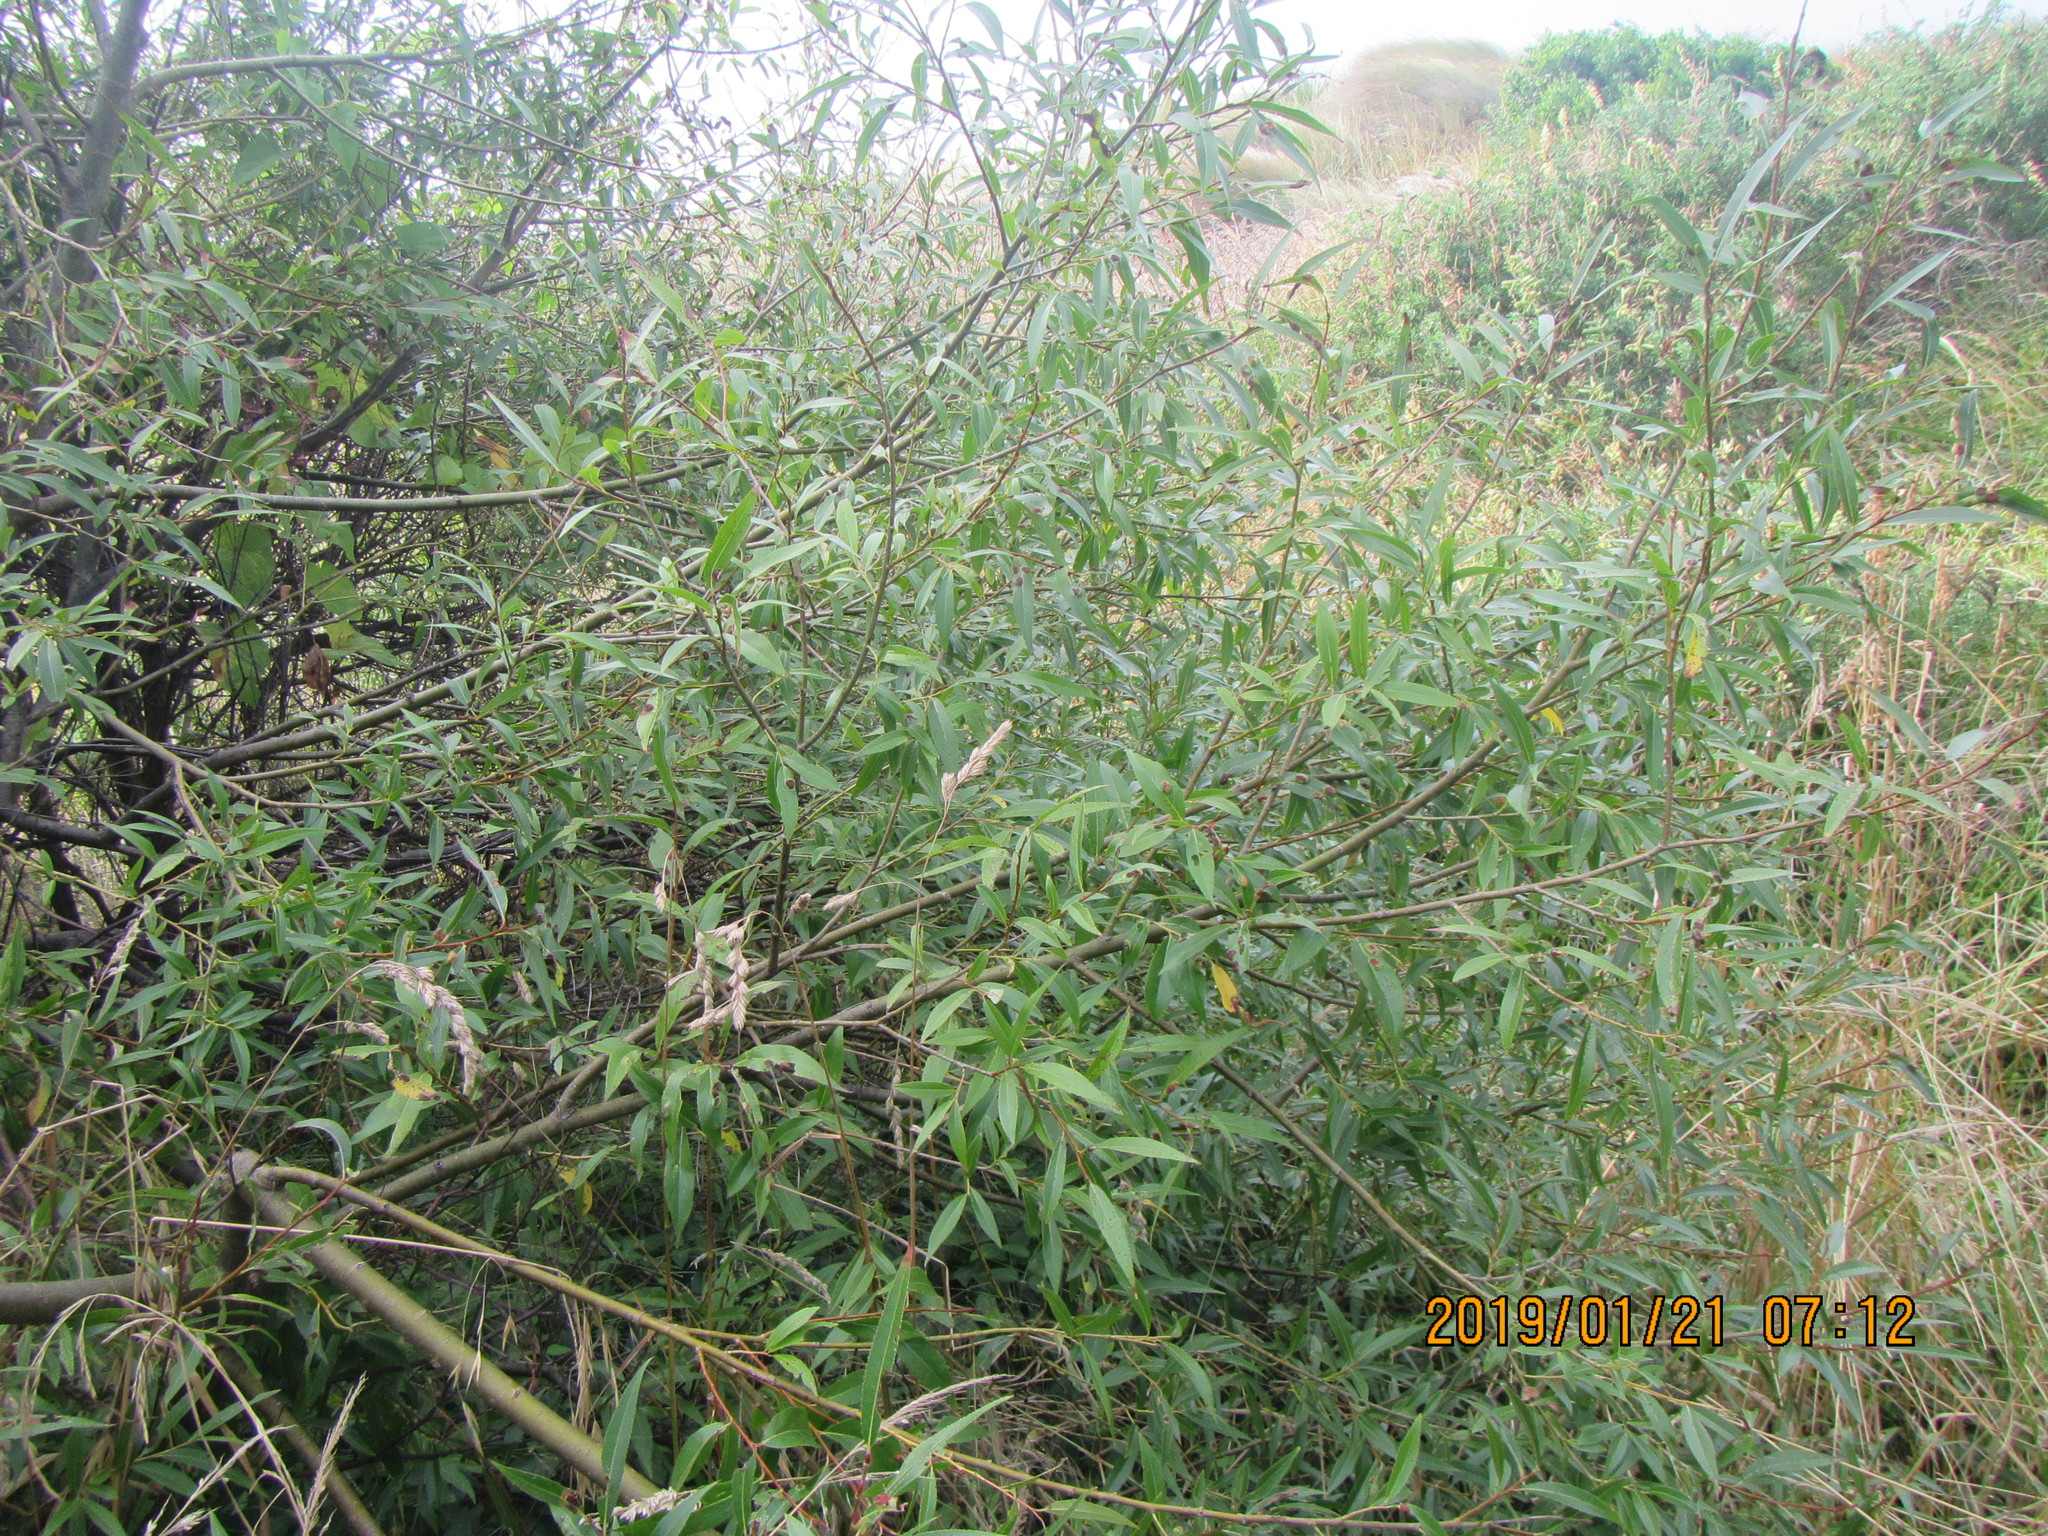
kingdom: Plantae
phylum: Tracheophyta
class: Magnoliopsida
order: Malpighiales
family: Salicaceae
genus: Salix
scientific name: Salix fragilis
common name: Crack willow
